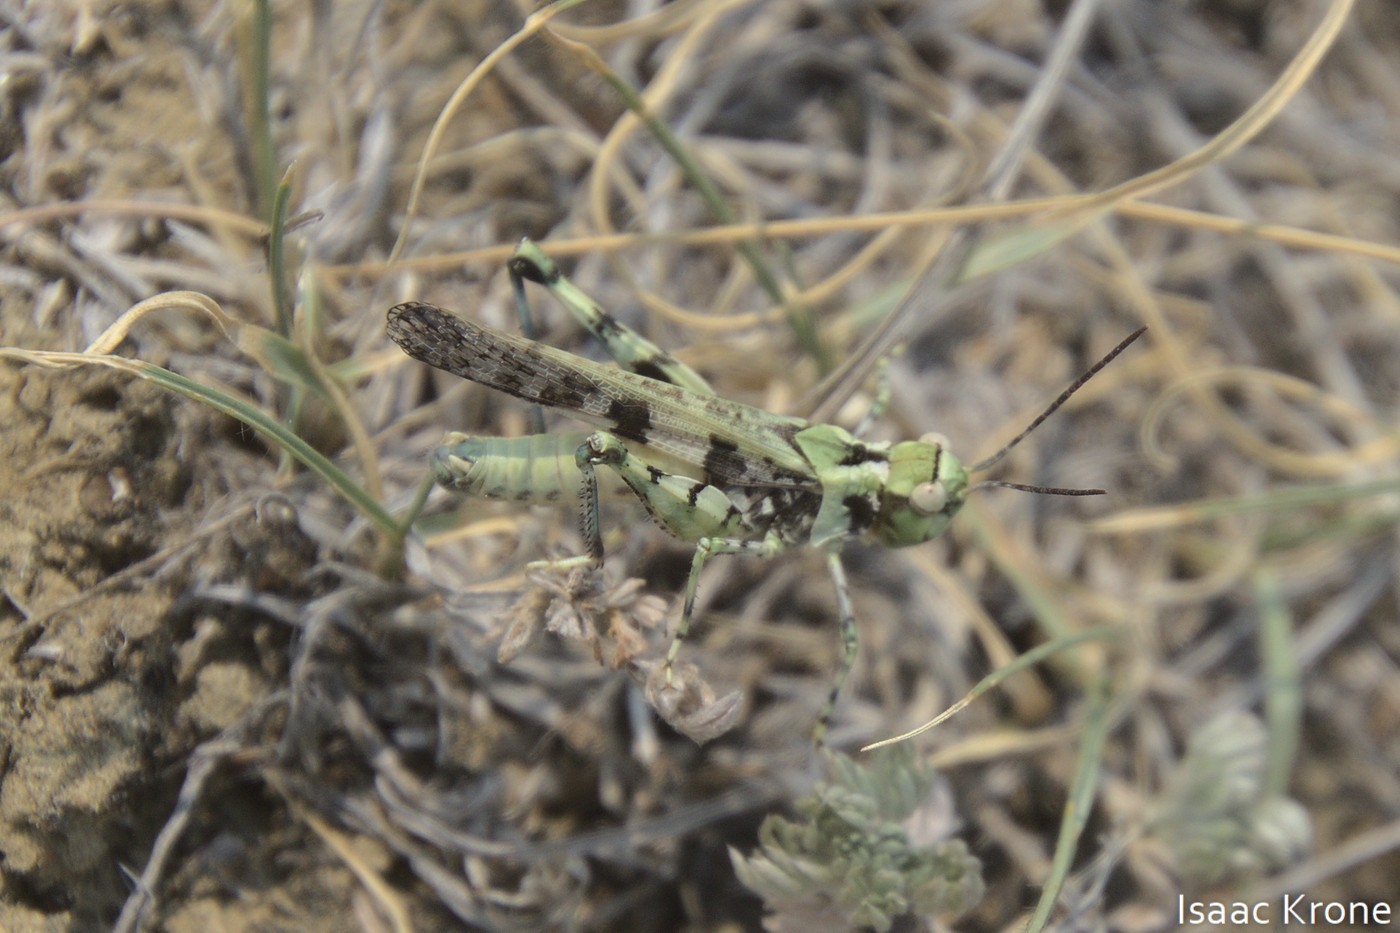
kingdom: Animalia
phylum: Arthropoda
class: Insecta
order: Orthoptera
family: Acrididae
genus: Trachyrhachys
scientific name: Trachyrhachys kiowa
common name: Kiowa grasshopper
